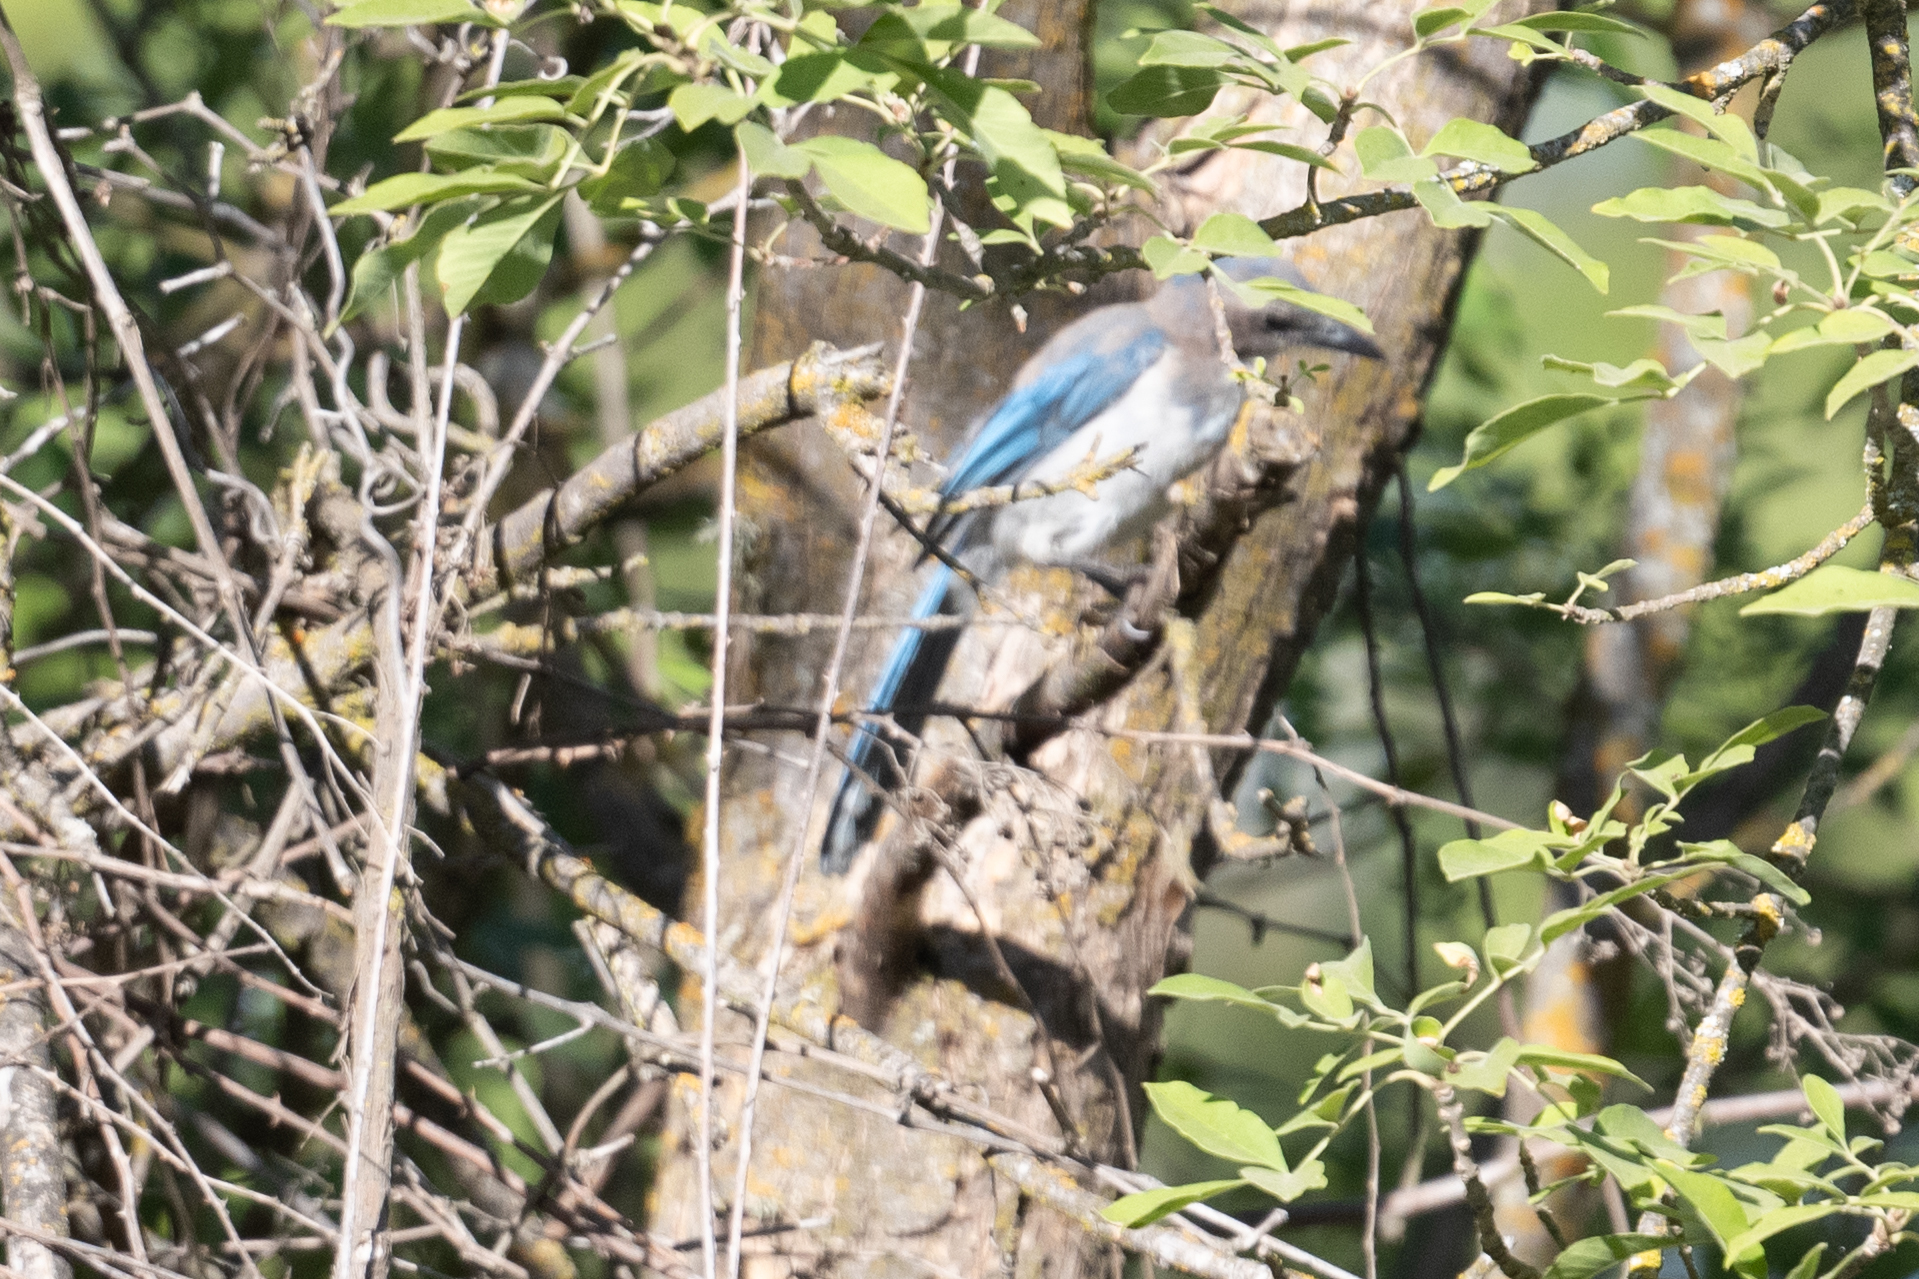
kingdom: Animalia
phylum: Chordata
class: Aves
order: Passeriformes
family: Corvidae
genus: Aphelocoma
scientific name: Aphelocoma californica
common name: California scrub-jay
